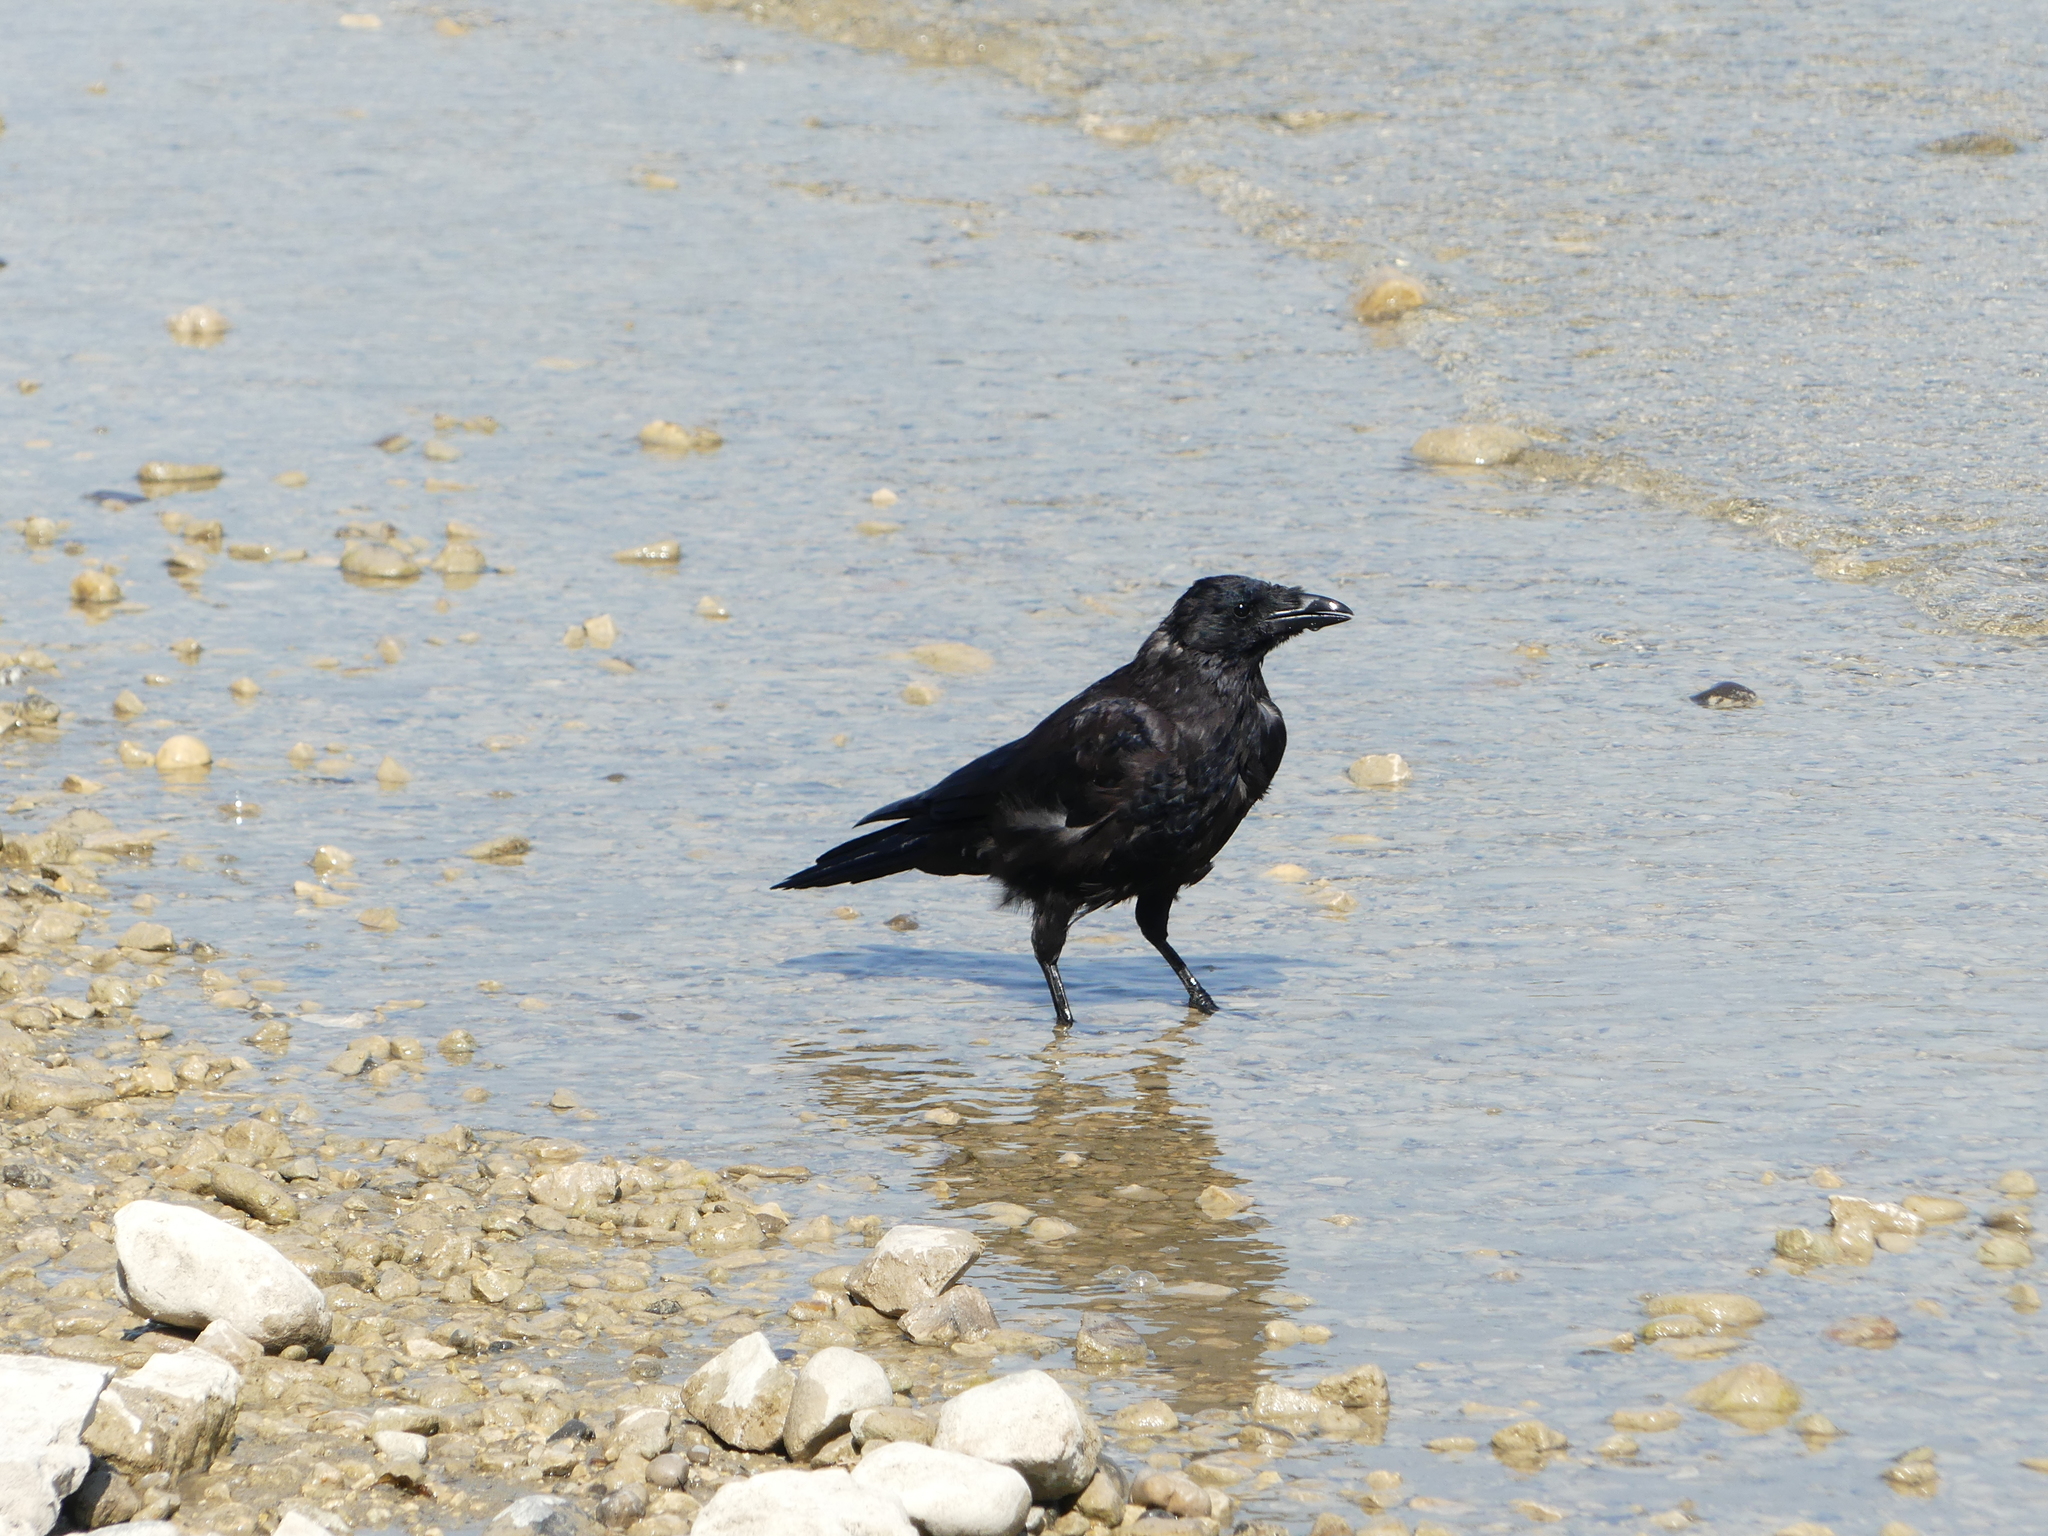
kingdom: Animalia
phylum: Chordata
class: Aves
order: Passeriformes
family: Corvidae
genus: Corvus
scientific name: Corvus corone
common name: Carrion crow
